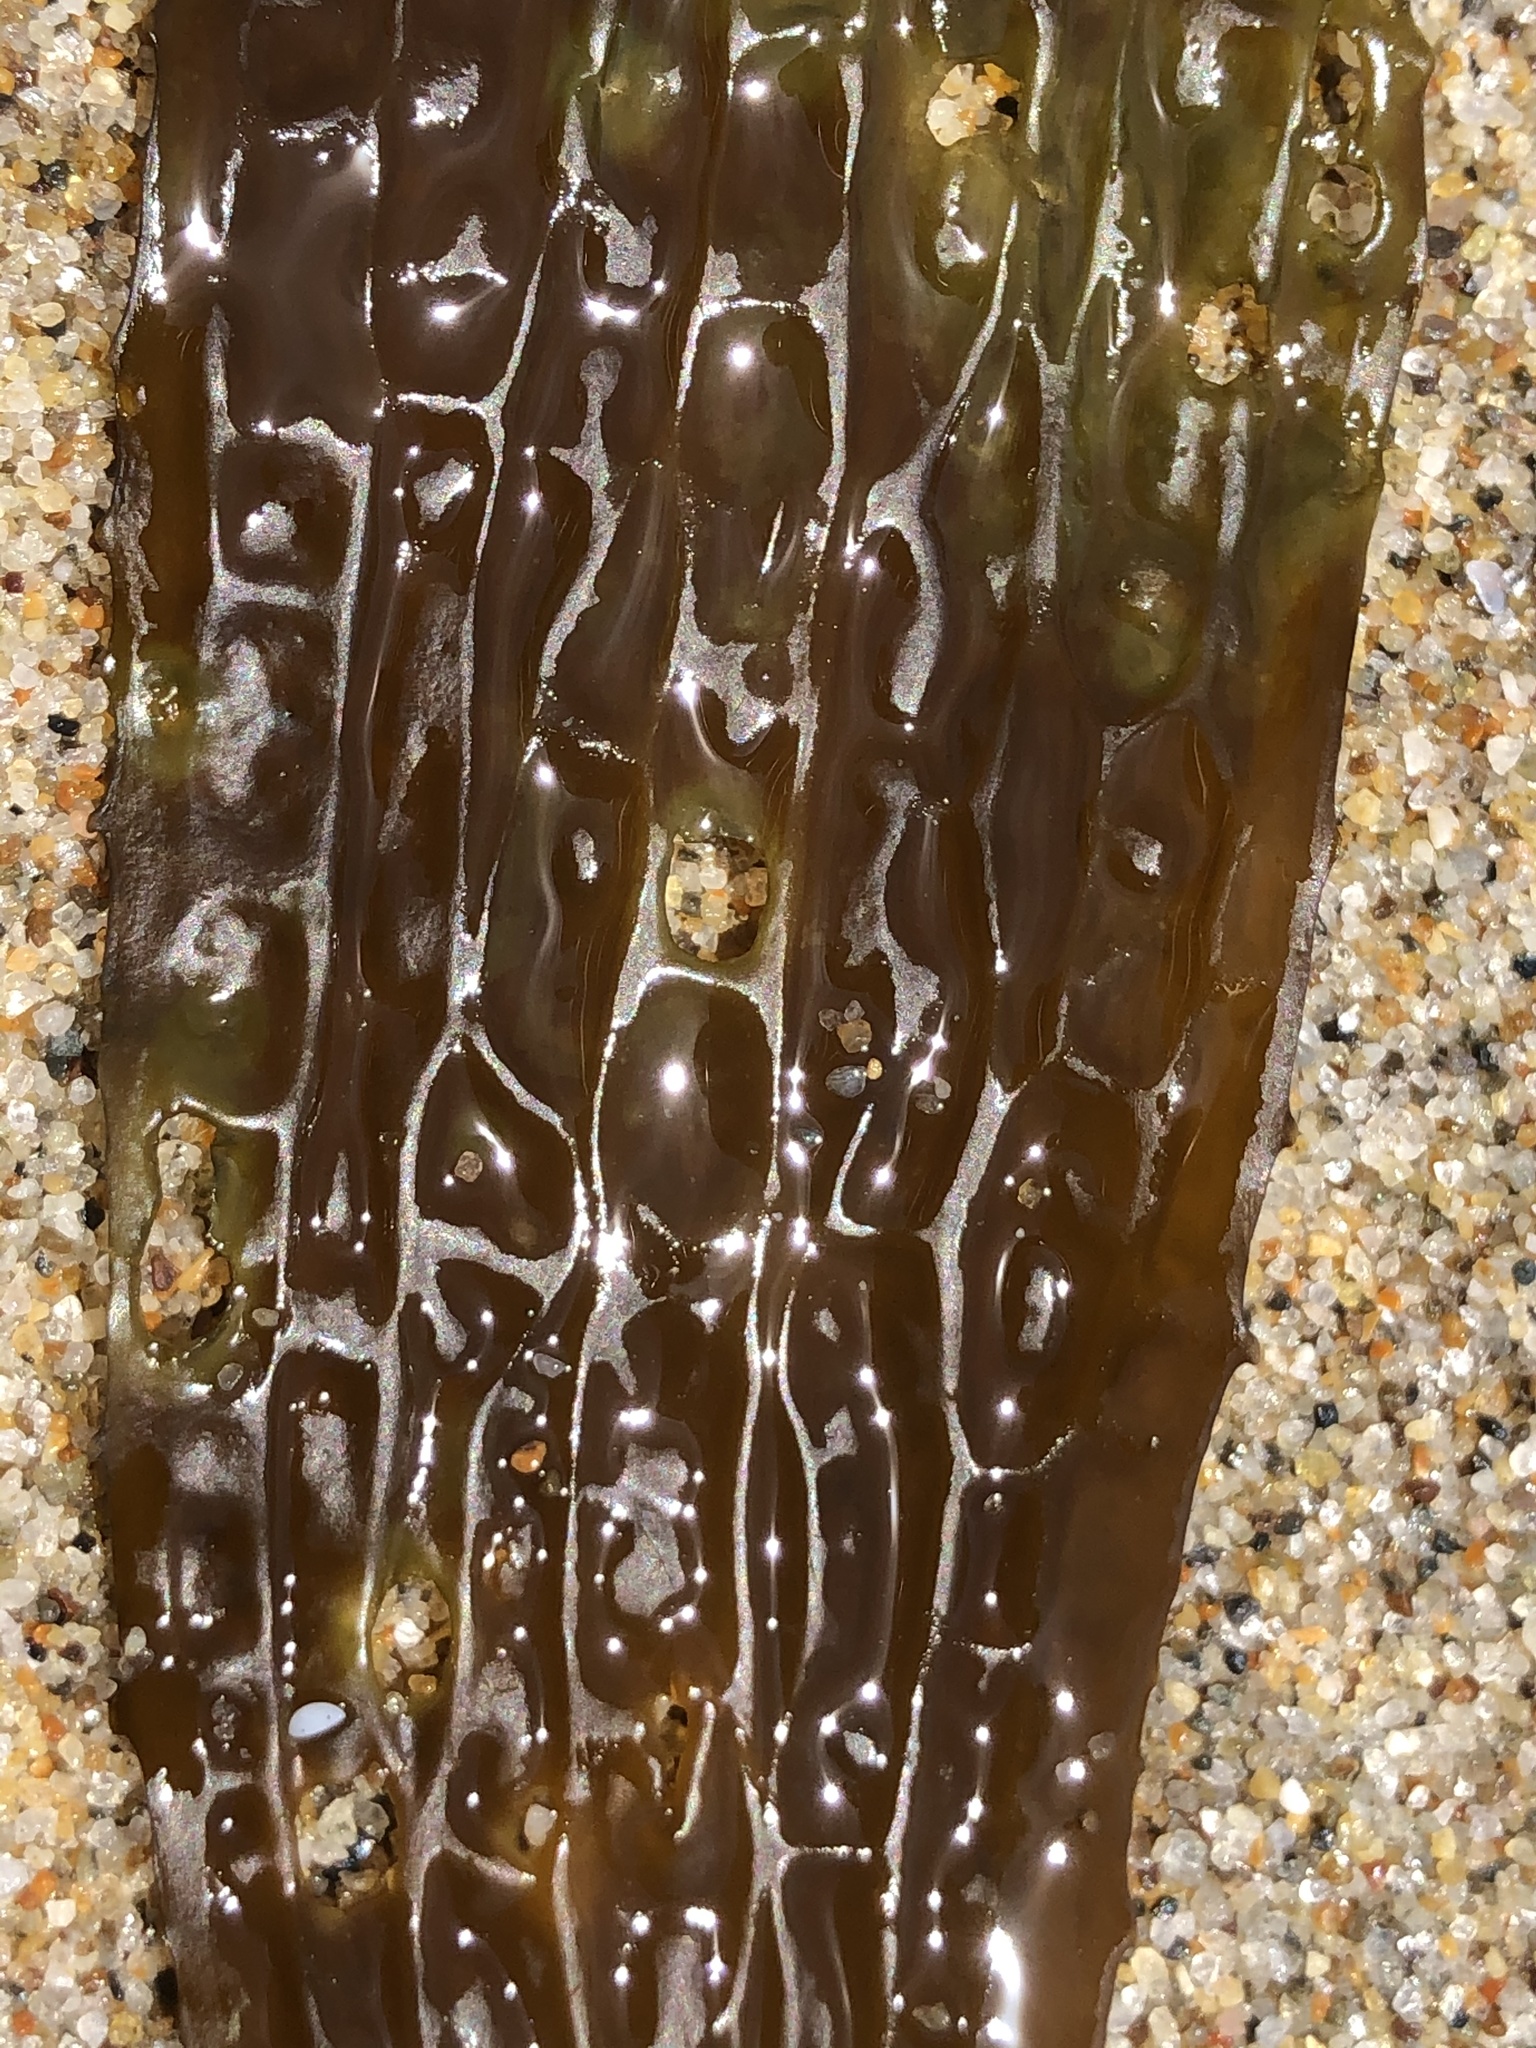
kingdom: Chromista
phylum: Ochrophyta
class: Phaeophyceae
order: Laminariales
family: Costariaceae
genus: Dictyoneurum
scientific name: Dictyoneurum californicum
